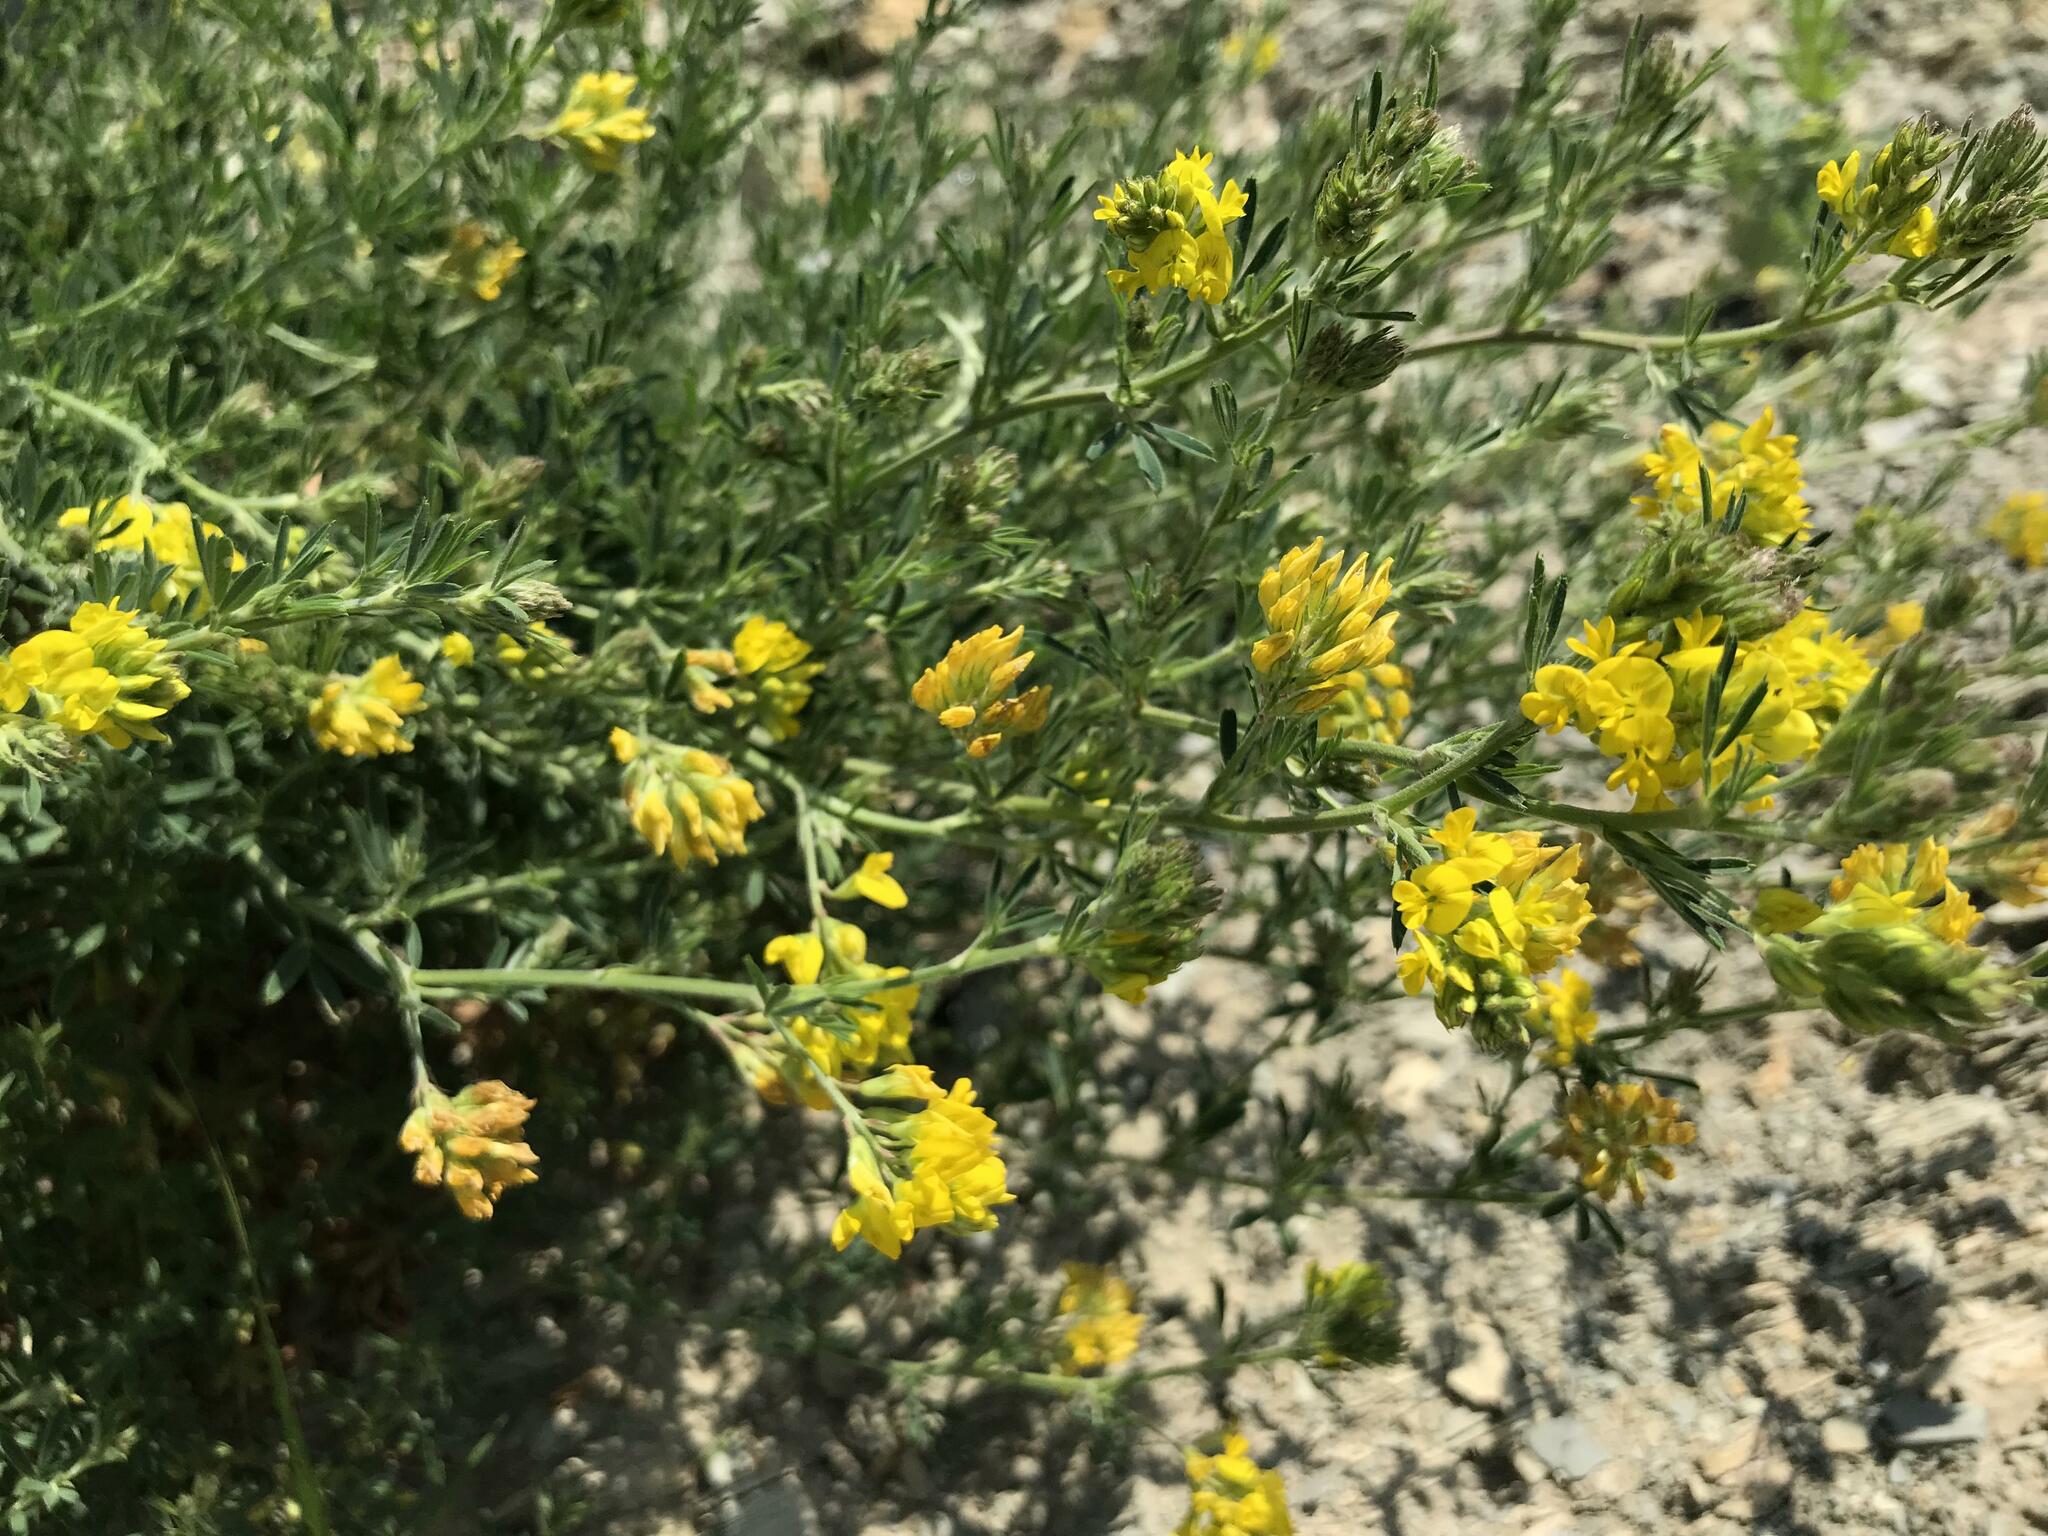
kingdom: Plantae
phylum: Tracheophyta
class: Magnoliopsida
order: Fabales
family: Fabaceae
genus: Medicago
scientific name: Medicago falcata
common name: Sickle medick
